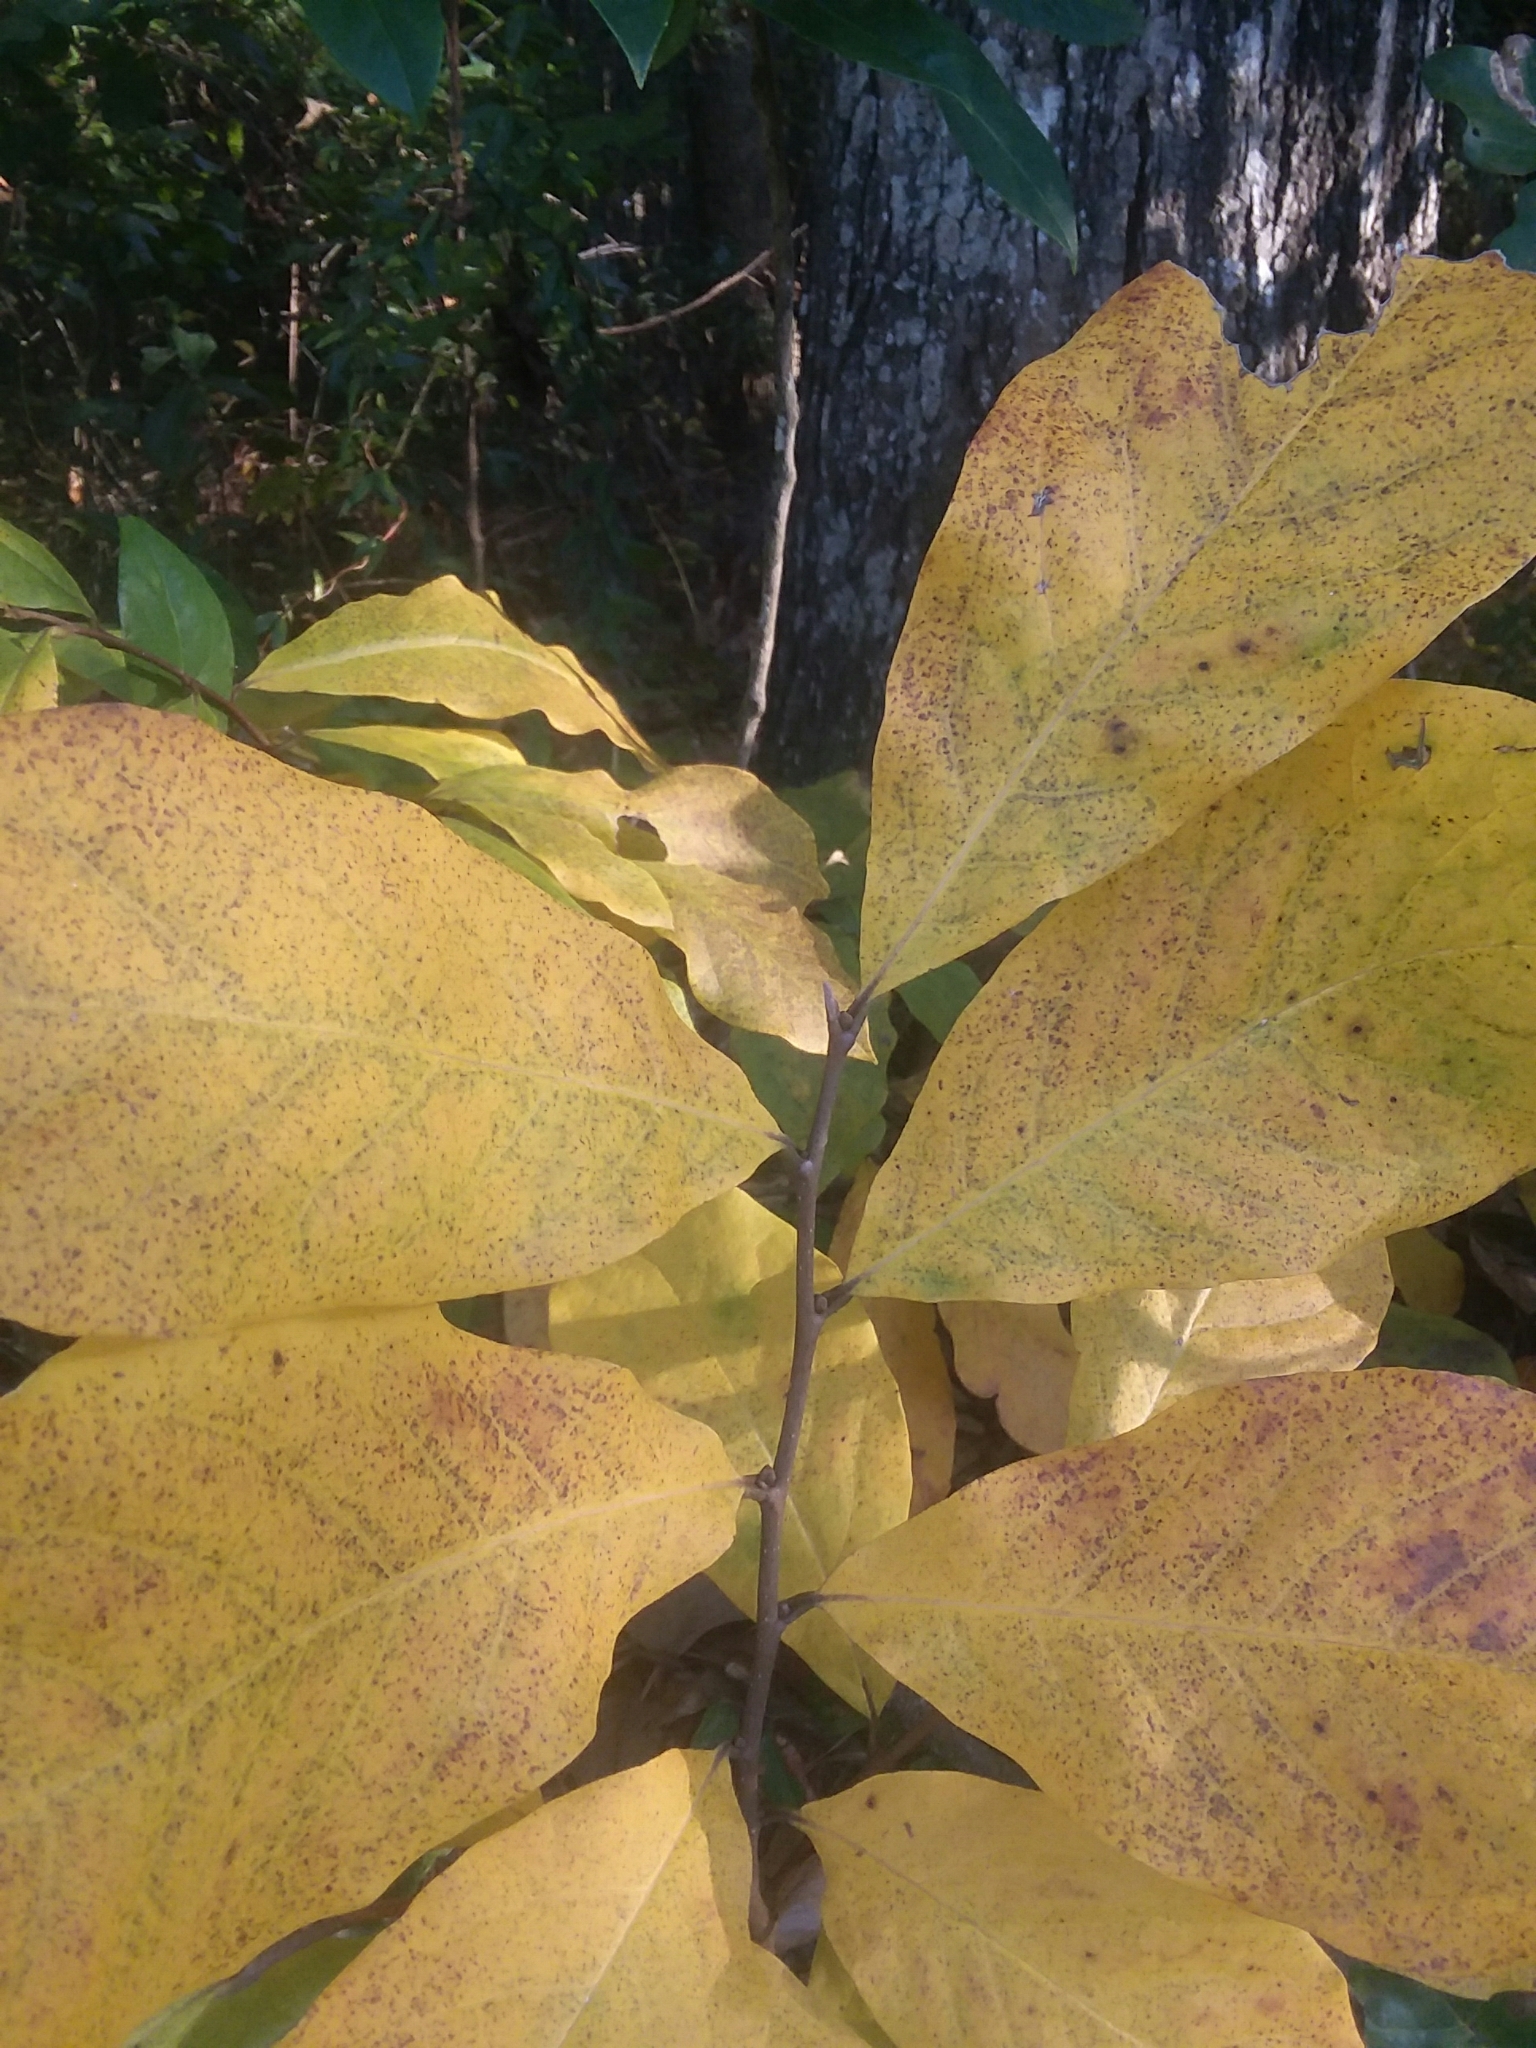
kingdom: Plantae
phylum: Tracheophyta
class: Magnoliopsida
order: Magnoliales
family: Annonaceae
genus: Asimina
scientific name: Asimina parviflora
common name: Dwarf pawpaw
